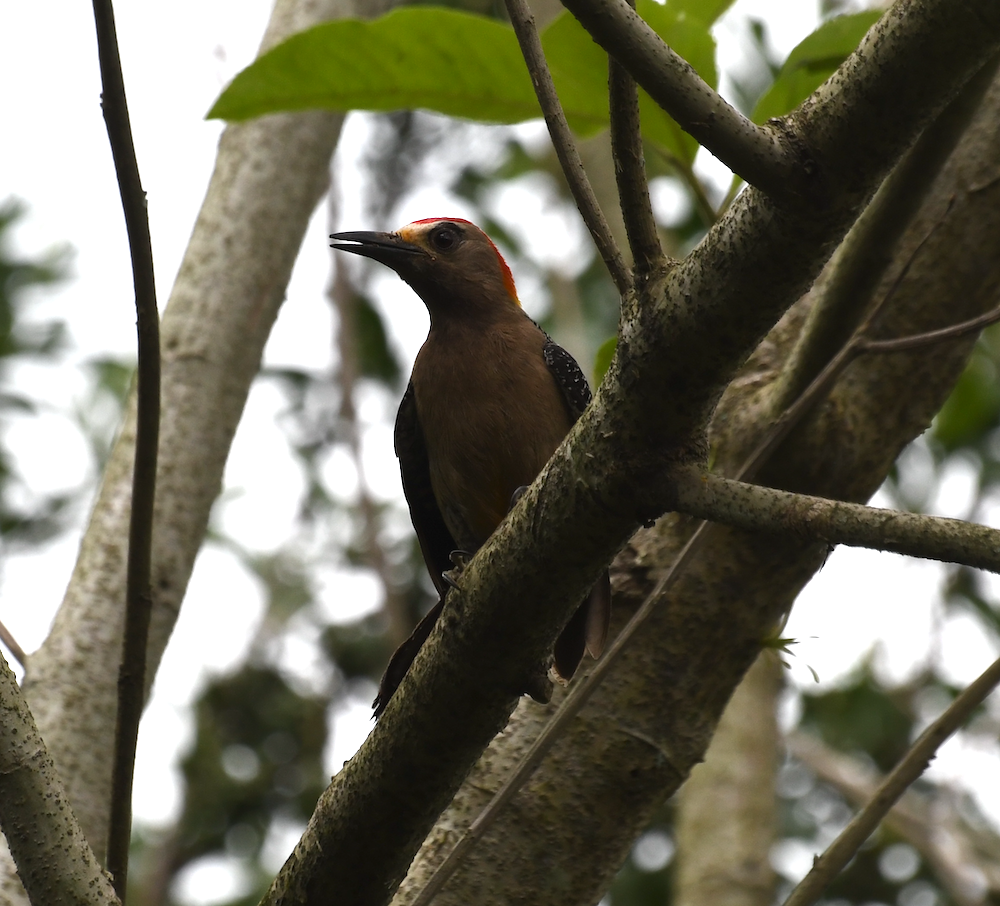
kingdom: Animalia
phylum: Chordata
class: Aves
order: Piciformes
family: Picidae
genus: Melanerpes
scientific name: Melanerpes aurifrons
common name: Golden-fronted woodpecker
